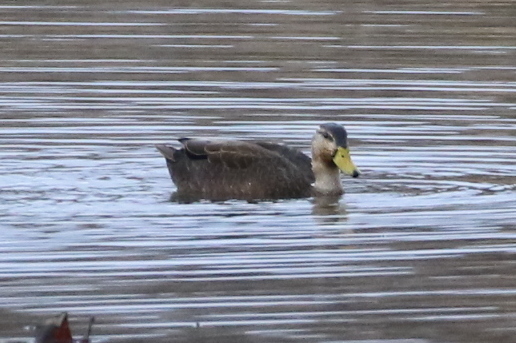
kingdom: Animalia
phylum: Chordata
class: Aves
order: Anseriformes
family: Anatidae
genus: Anas
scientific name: Anas rubripes
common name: American black duck
